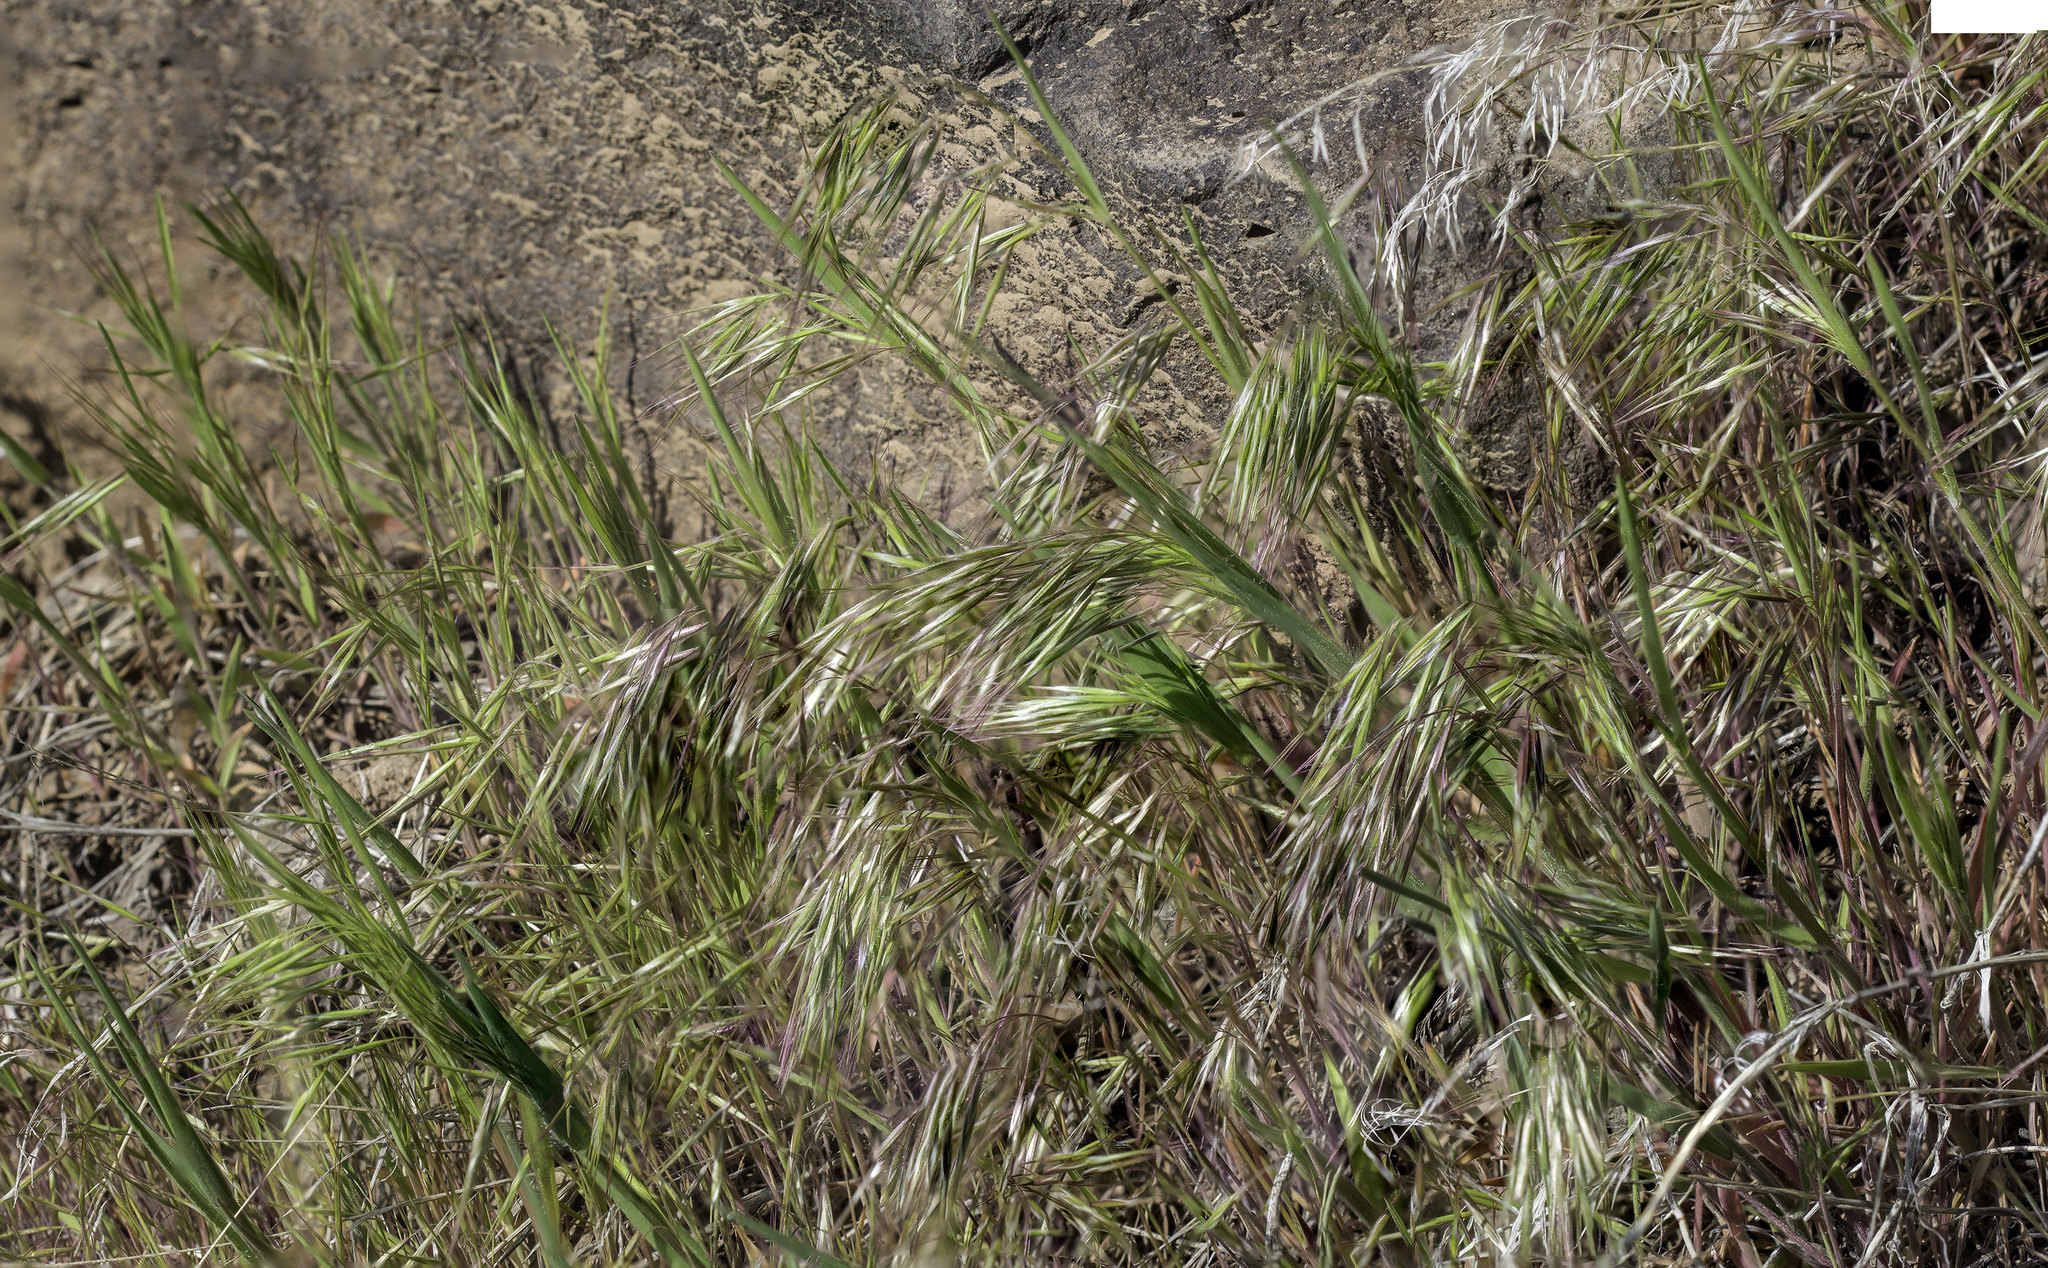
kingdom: Plantae
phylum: Tracheophyta
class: Liliopsida
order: Poales
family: Poaceae
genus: Bromus
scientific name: Bromus tectorum
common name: Cheatgrass
